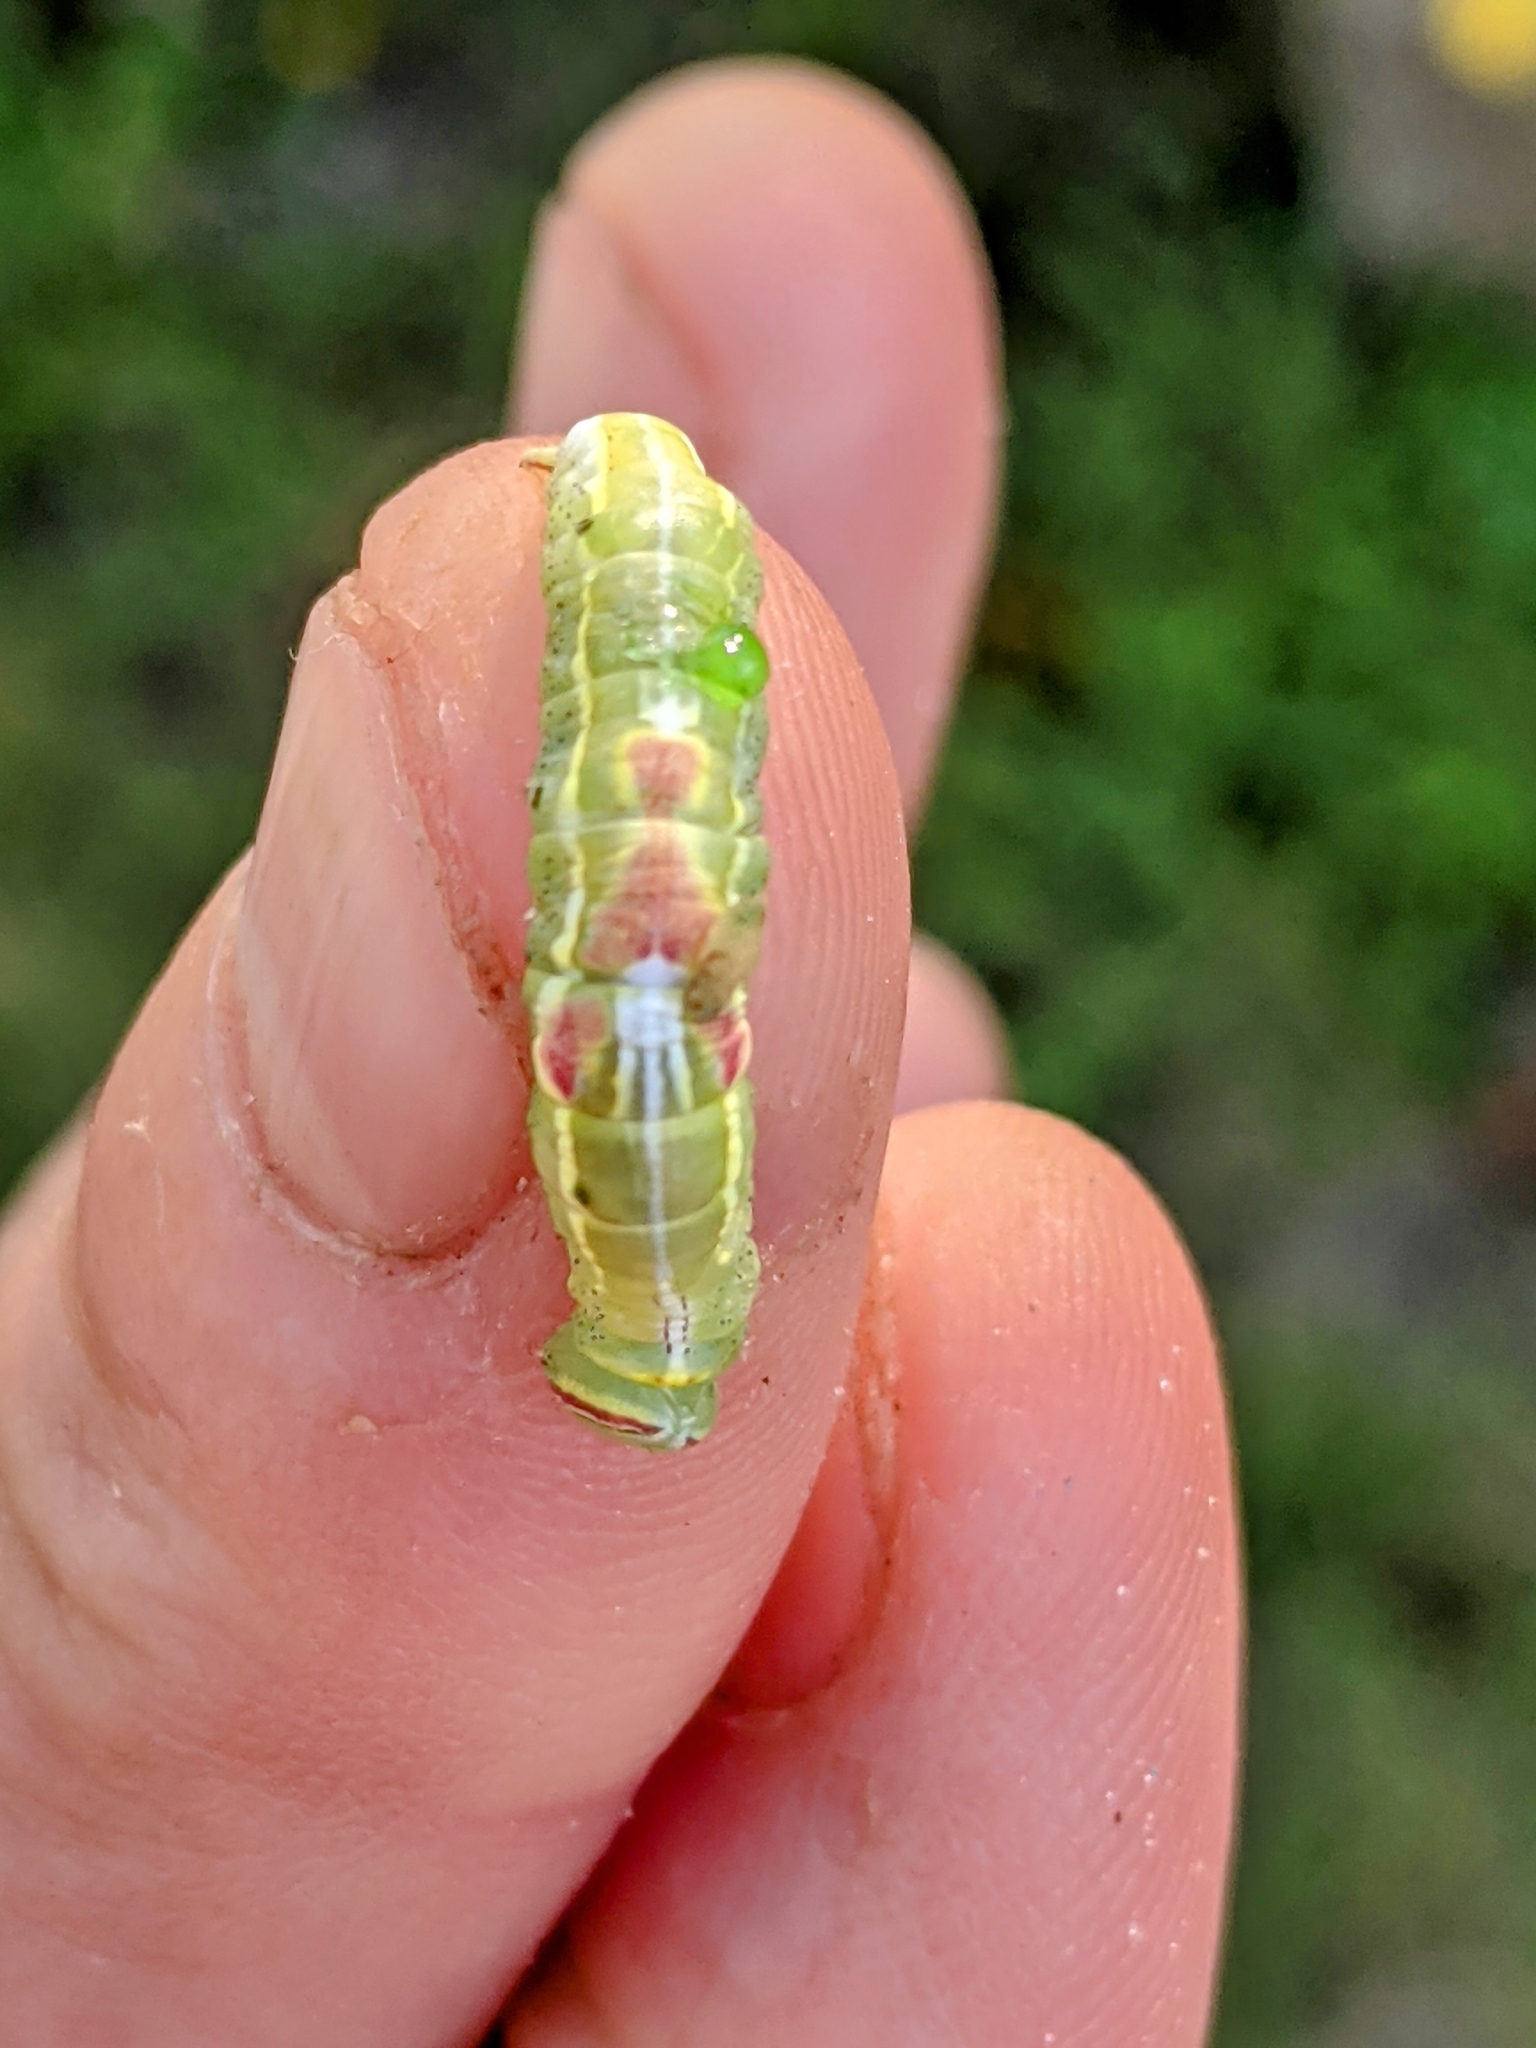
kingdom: Animalia
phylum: Arthropoda
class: Insecta
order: Lepidoptera
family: Notodontidae
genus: Disphragis
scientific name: Disphragis Cecrita guttivitta
